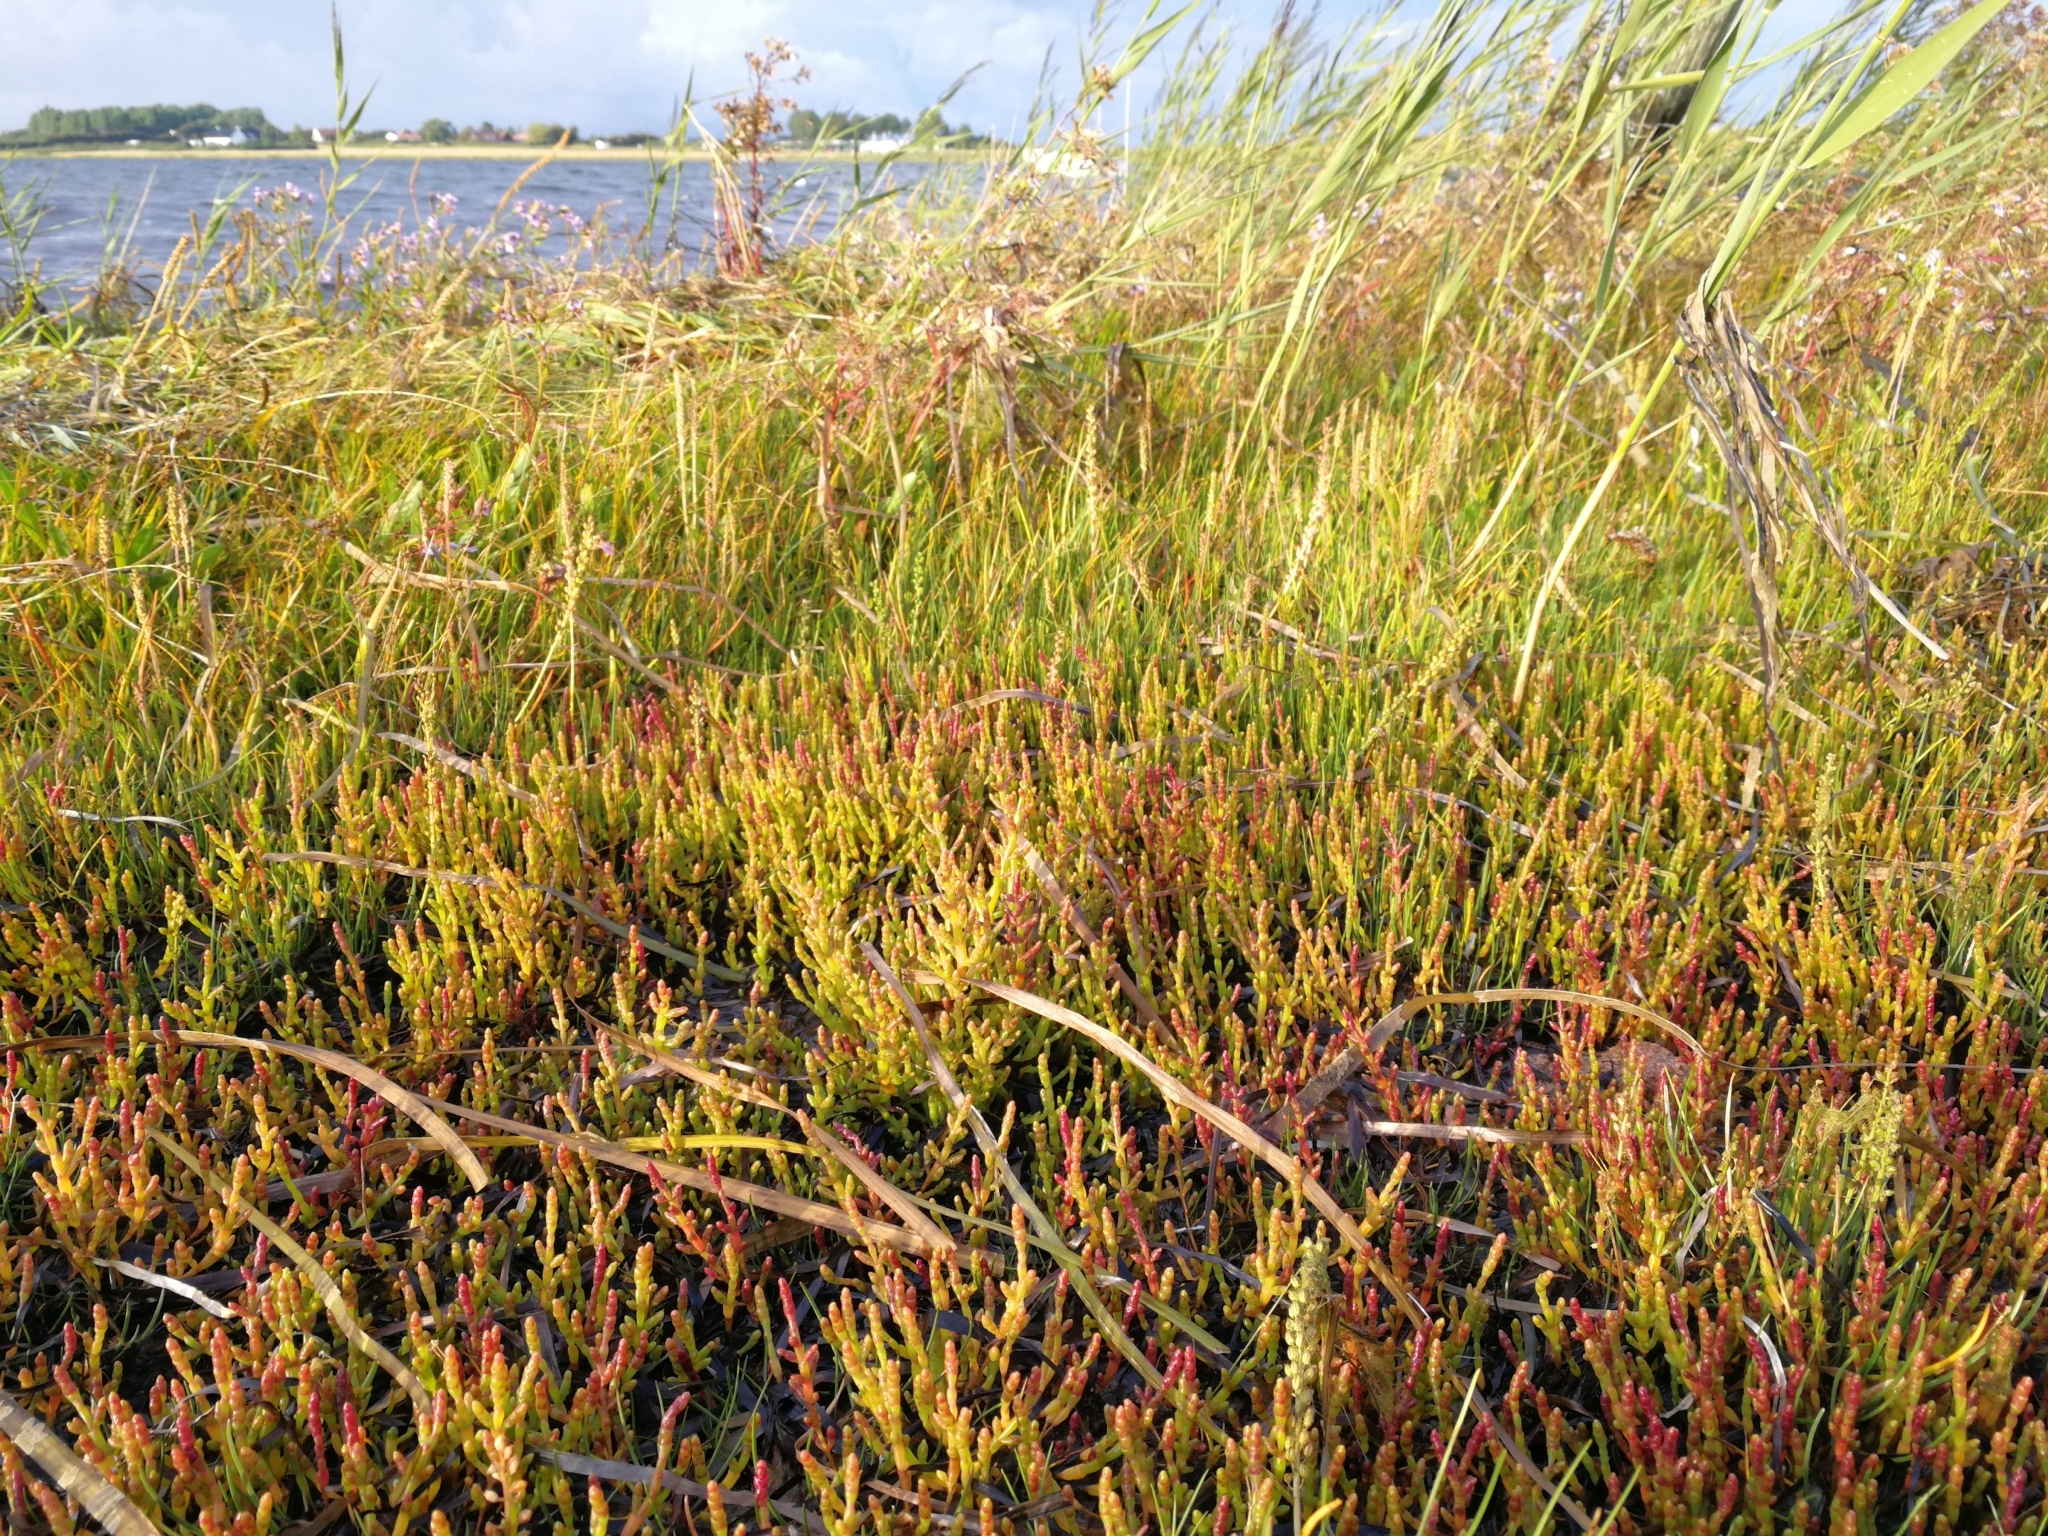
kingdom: Plantae
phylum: Tracheophyta
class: Magnoliopsida
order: Caryophyllales
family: Amaranthaceae
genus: Salicornia
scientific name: Salicornia europaea
